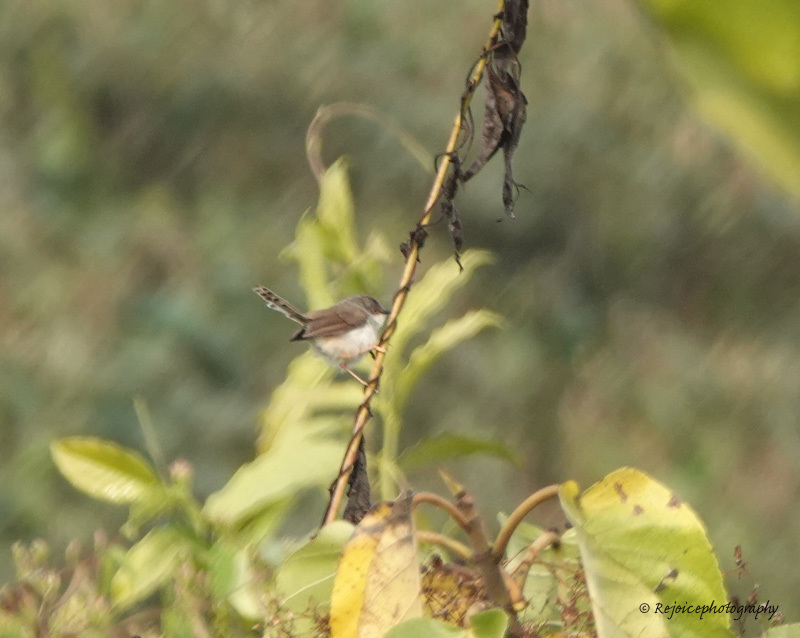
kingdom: Animalia
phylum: Chordata
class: Aves
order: Passeriformes
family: Cisticolidae
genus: Prinia
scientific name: Prinia socialis
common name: Ashy prinia
